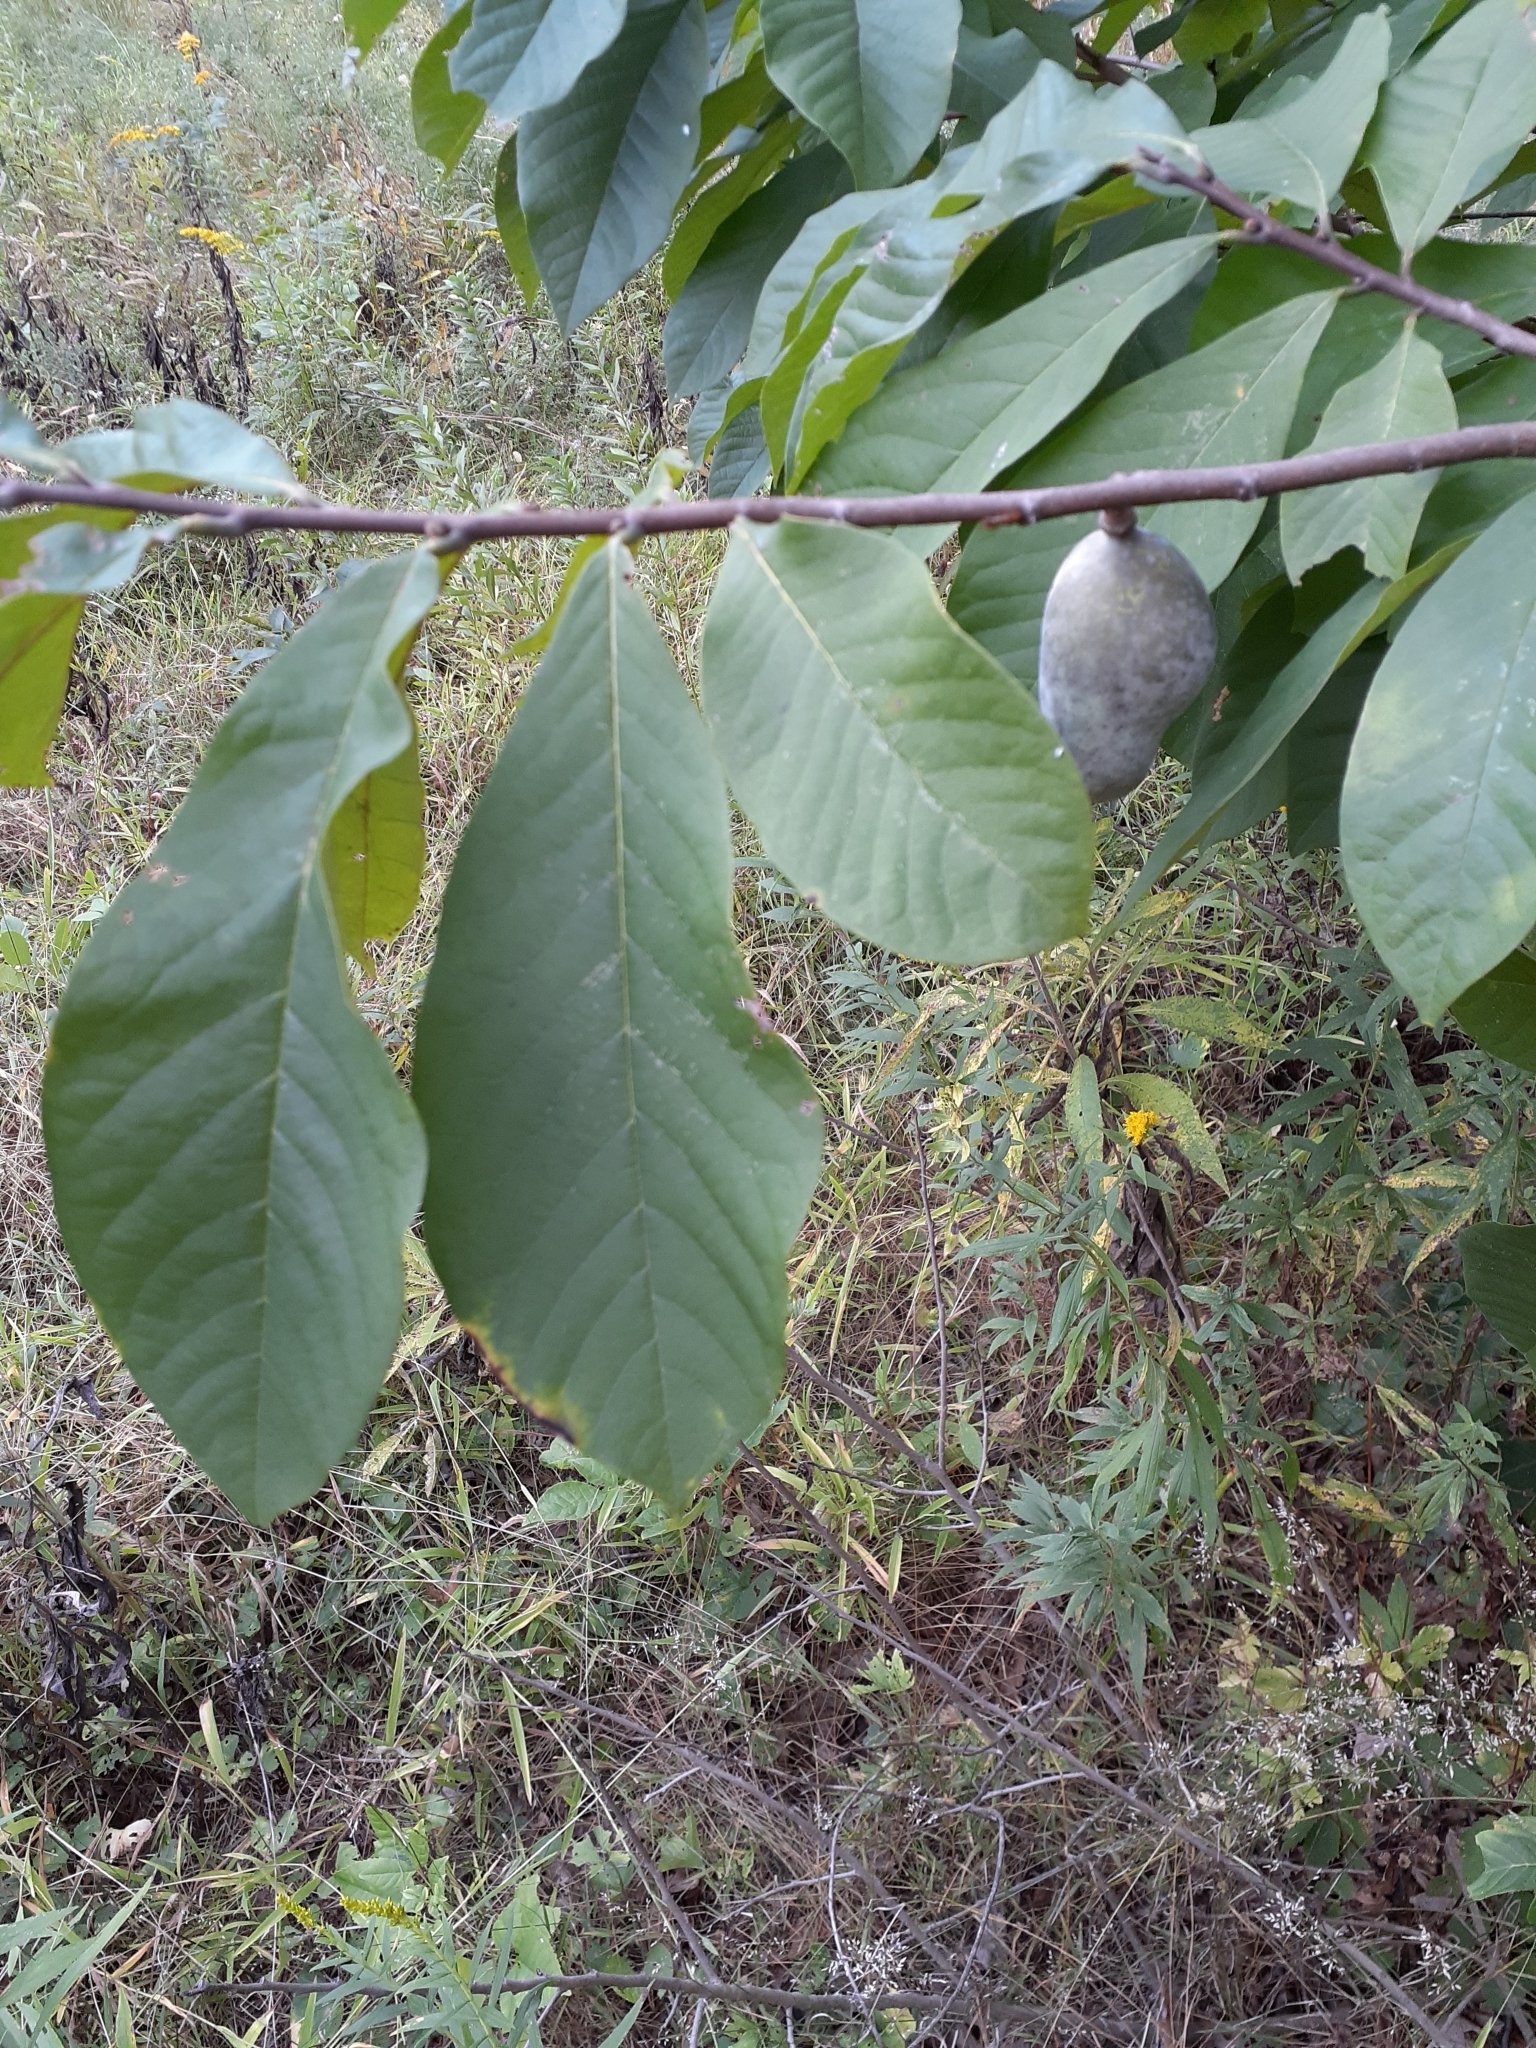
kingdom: Plantae
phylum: Tracheophyta
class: Magnoliopsida
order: Magnoliales
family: Annonaceae
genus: Asimina
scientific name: Asimina triloba
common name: Dog-banana
